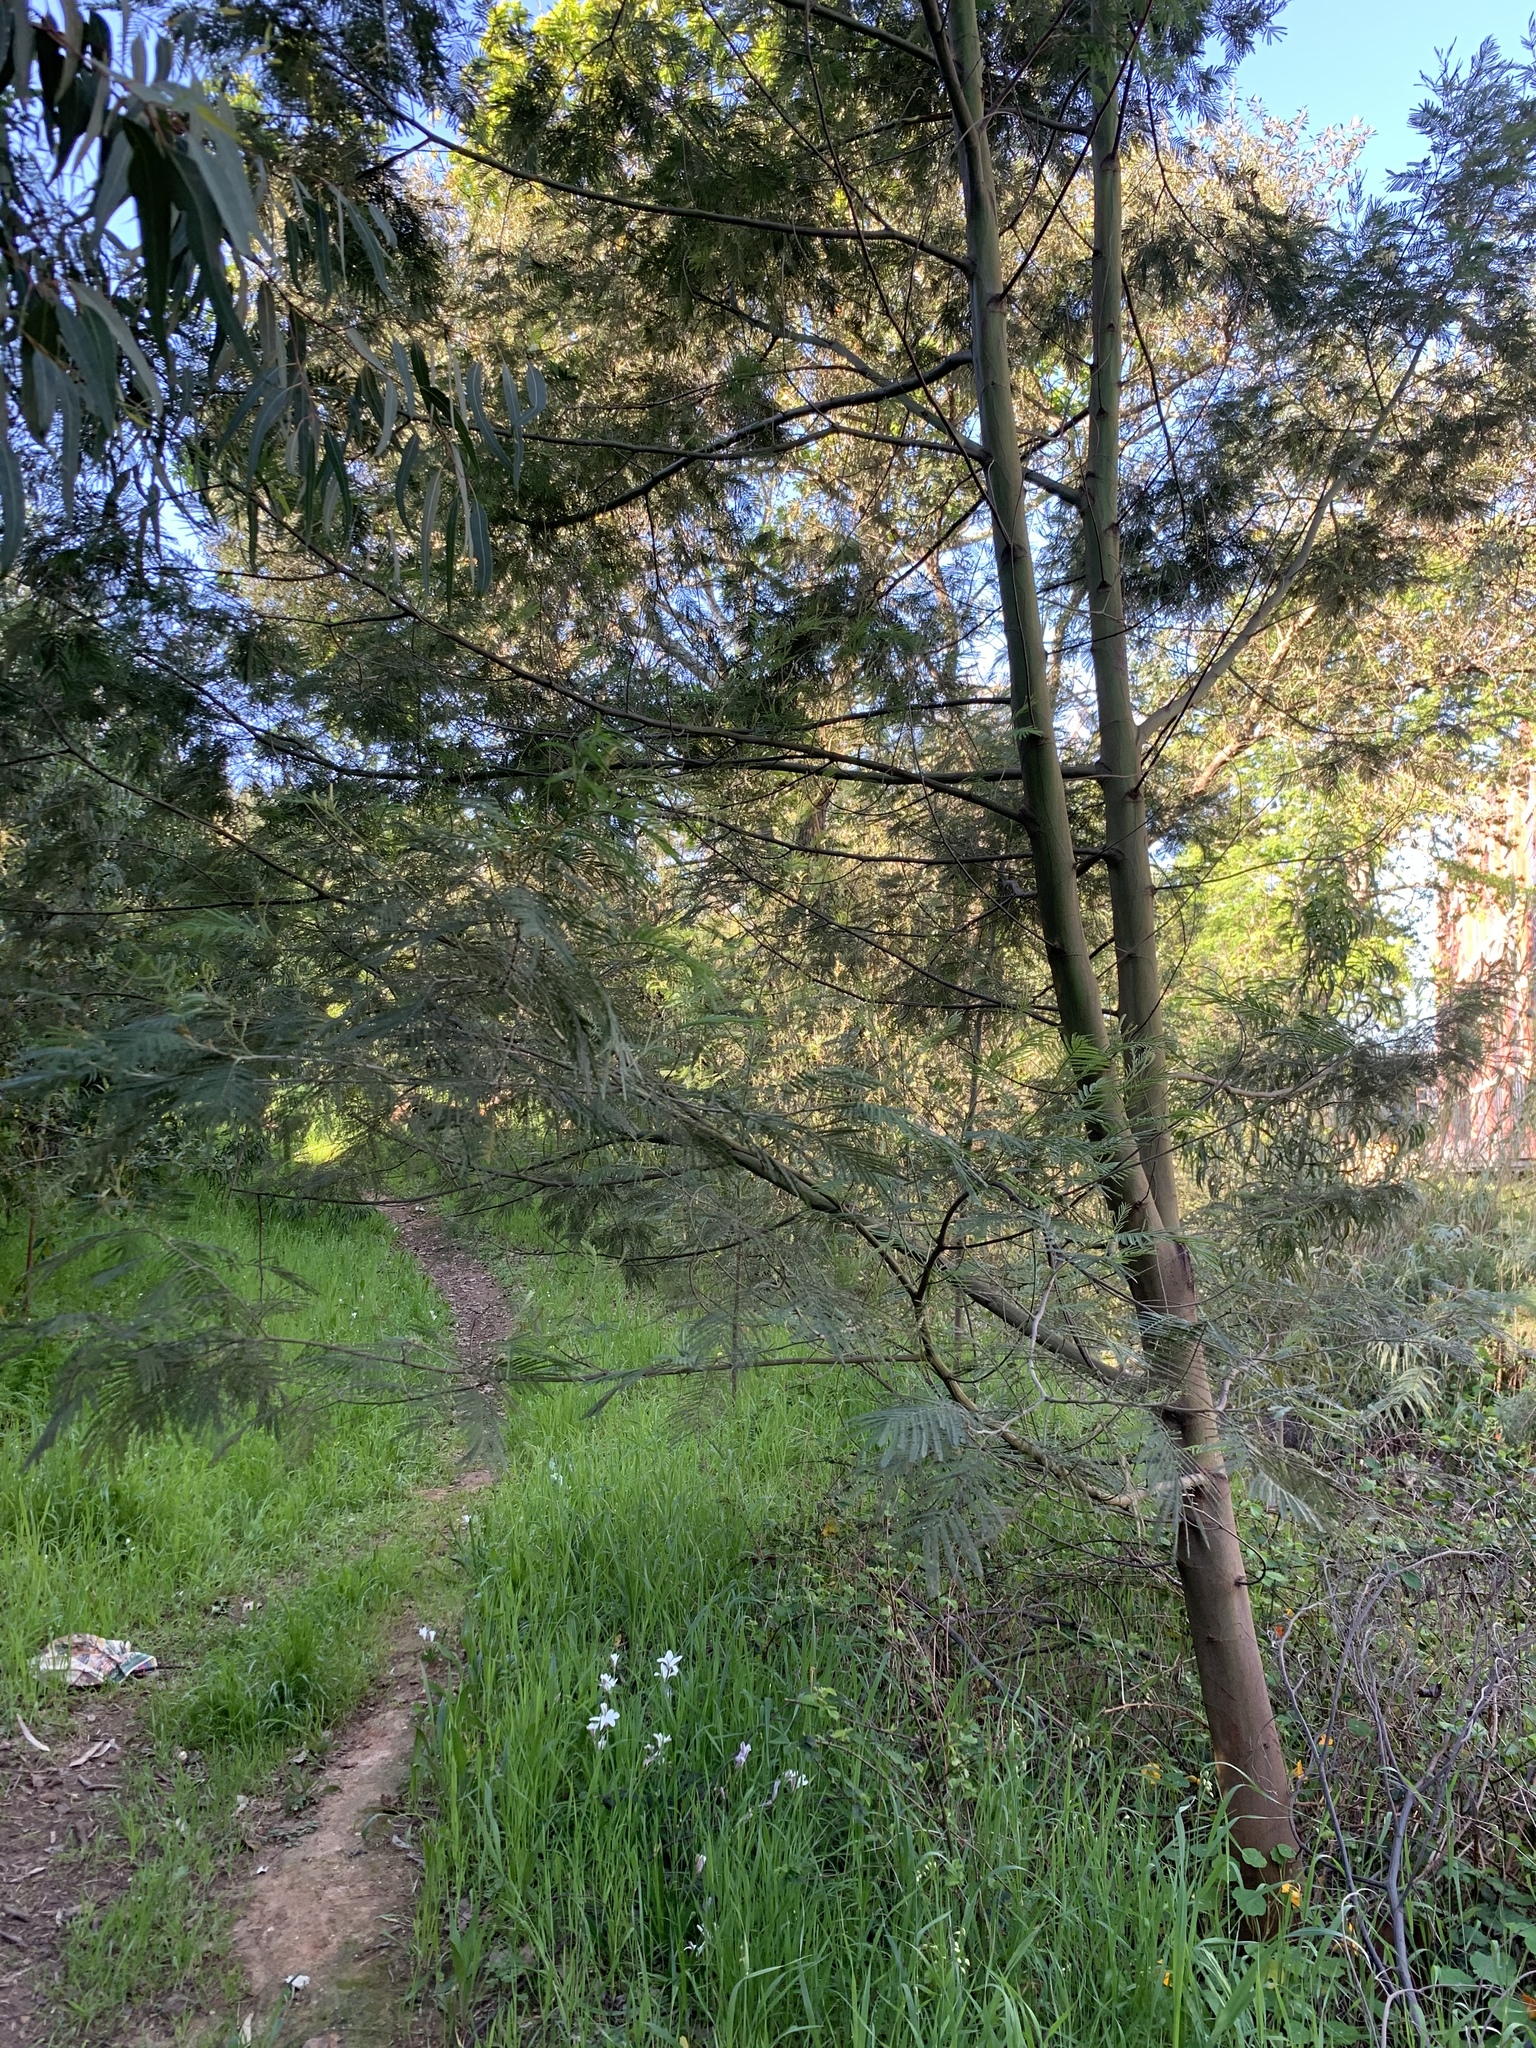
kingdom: Plantae
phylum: Tracheophyta
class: Magnoliopsida
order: Fabales
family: Fabaceae
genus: Acacia
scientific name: Acacia mearnsii
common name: Black wattle
